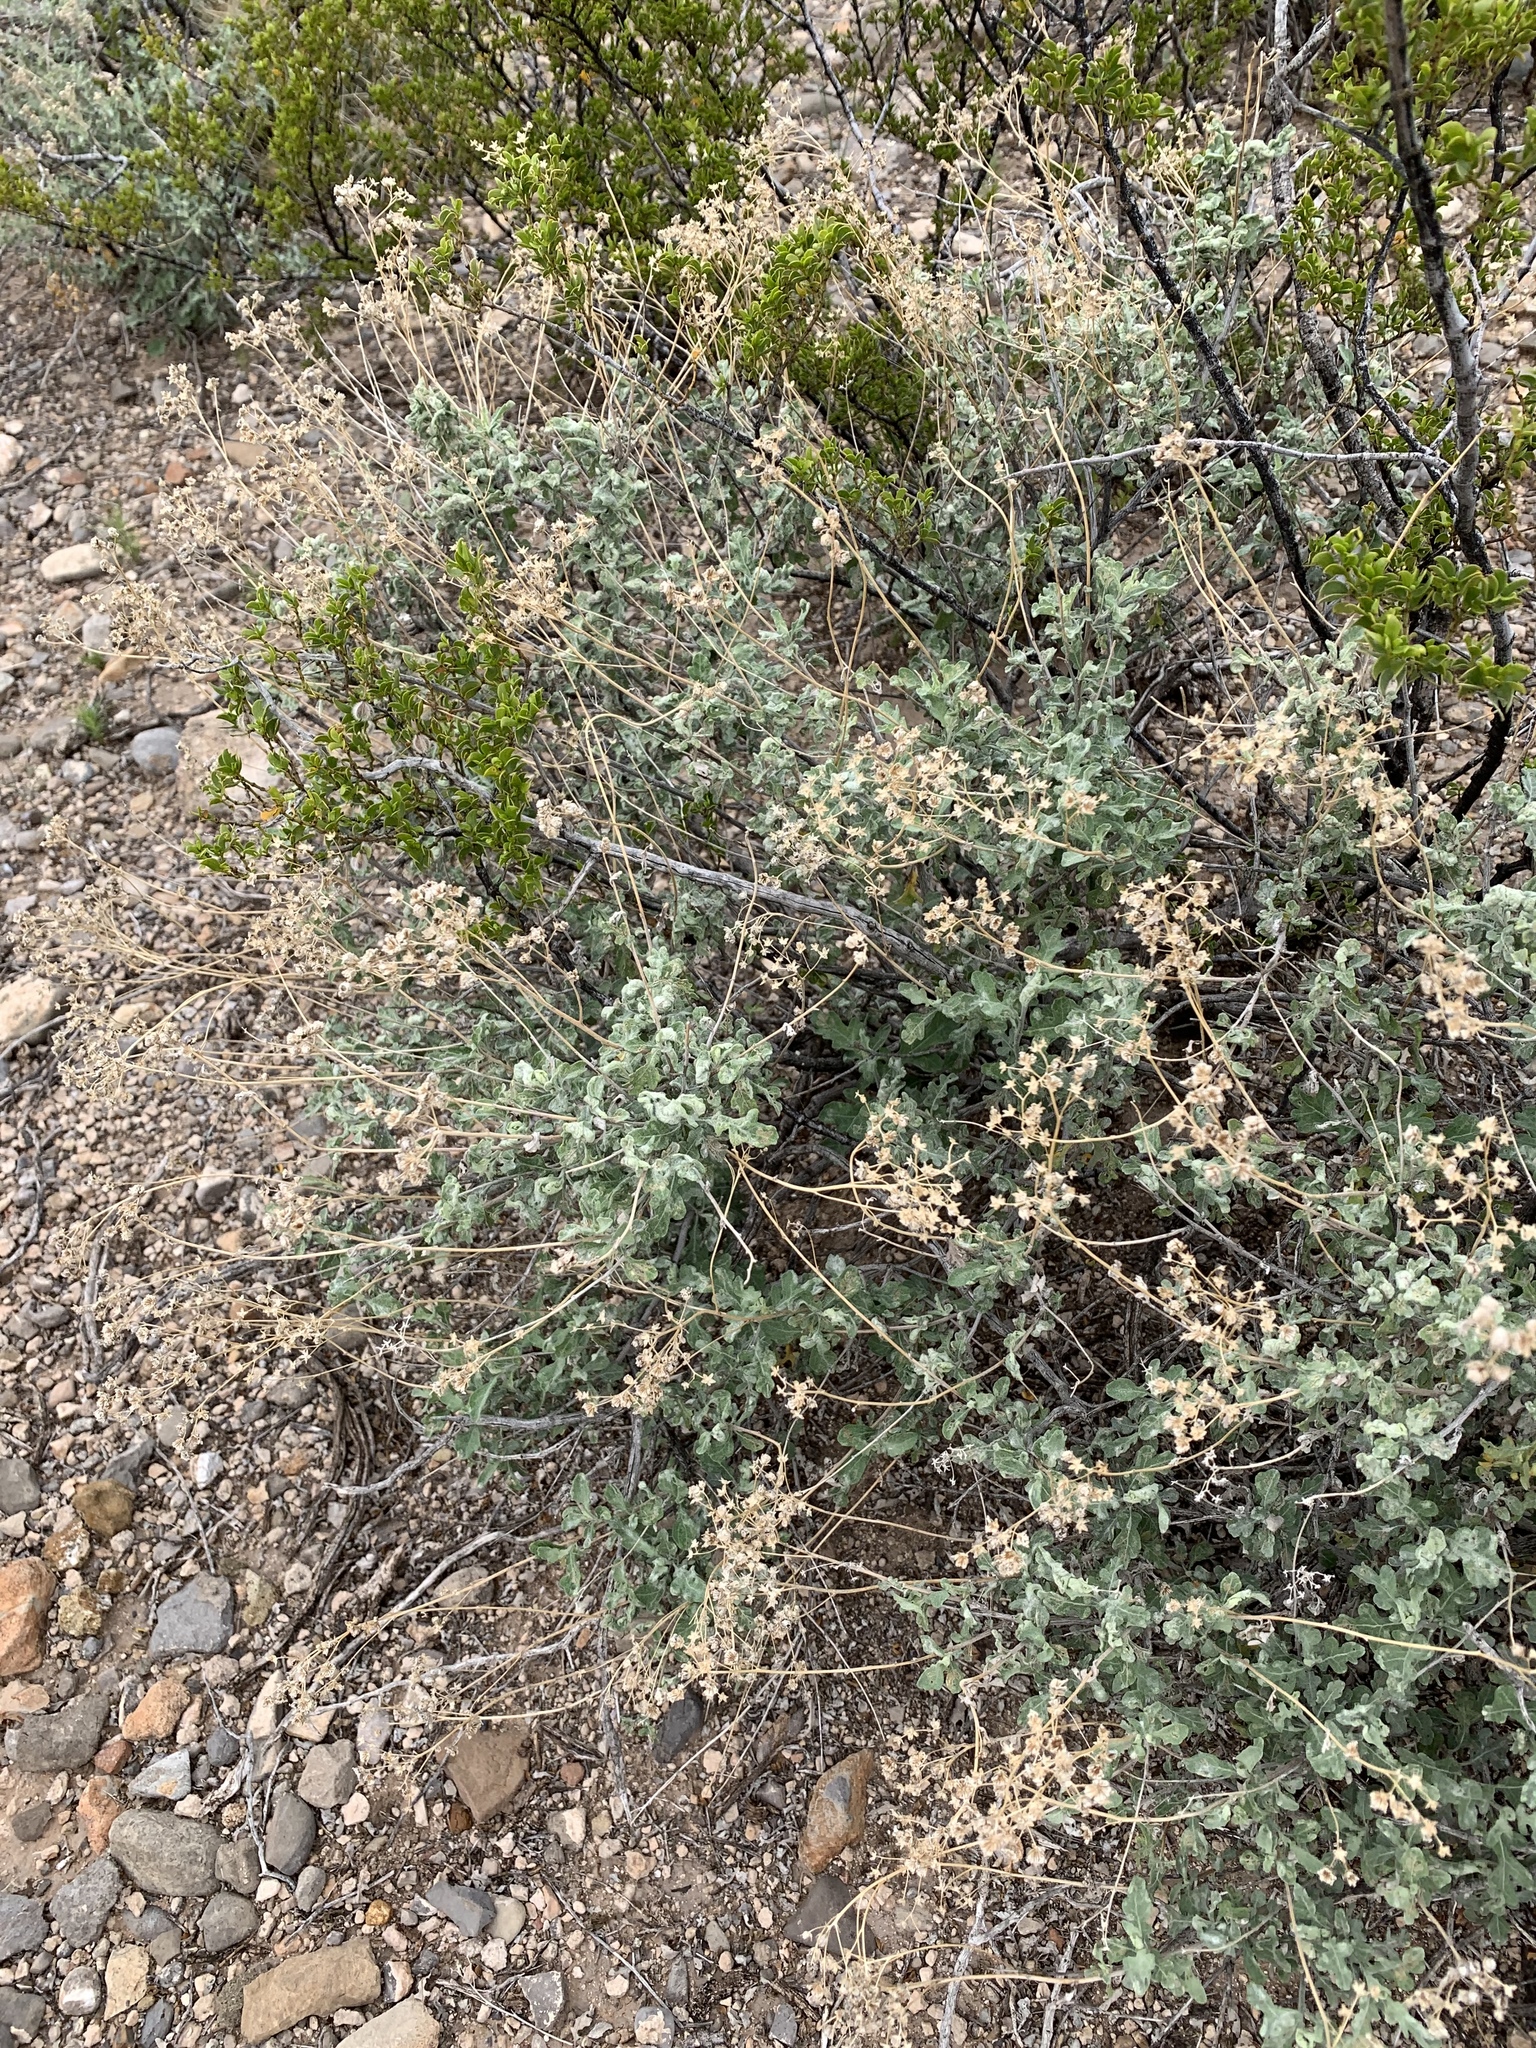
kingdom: Plantae
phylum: Tracheophyta
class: Magnoliopsida
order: Asterales
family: Asteraceae
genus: Parthenium
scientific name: Parthenium incanum
